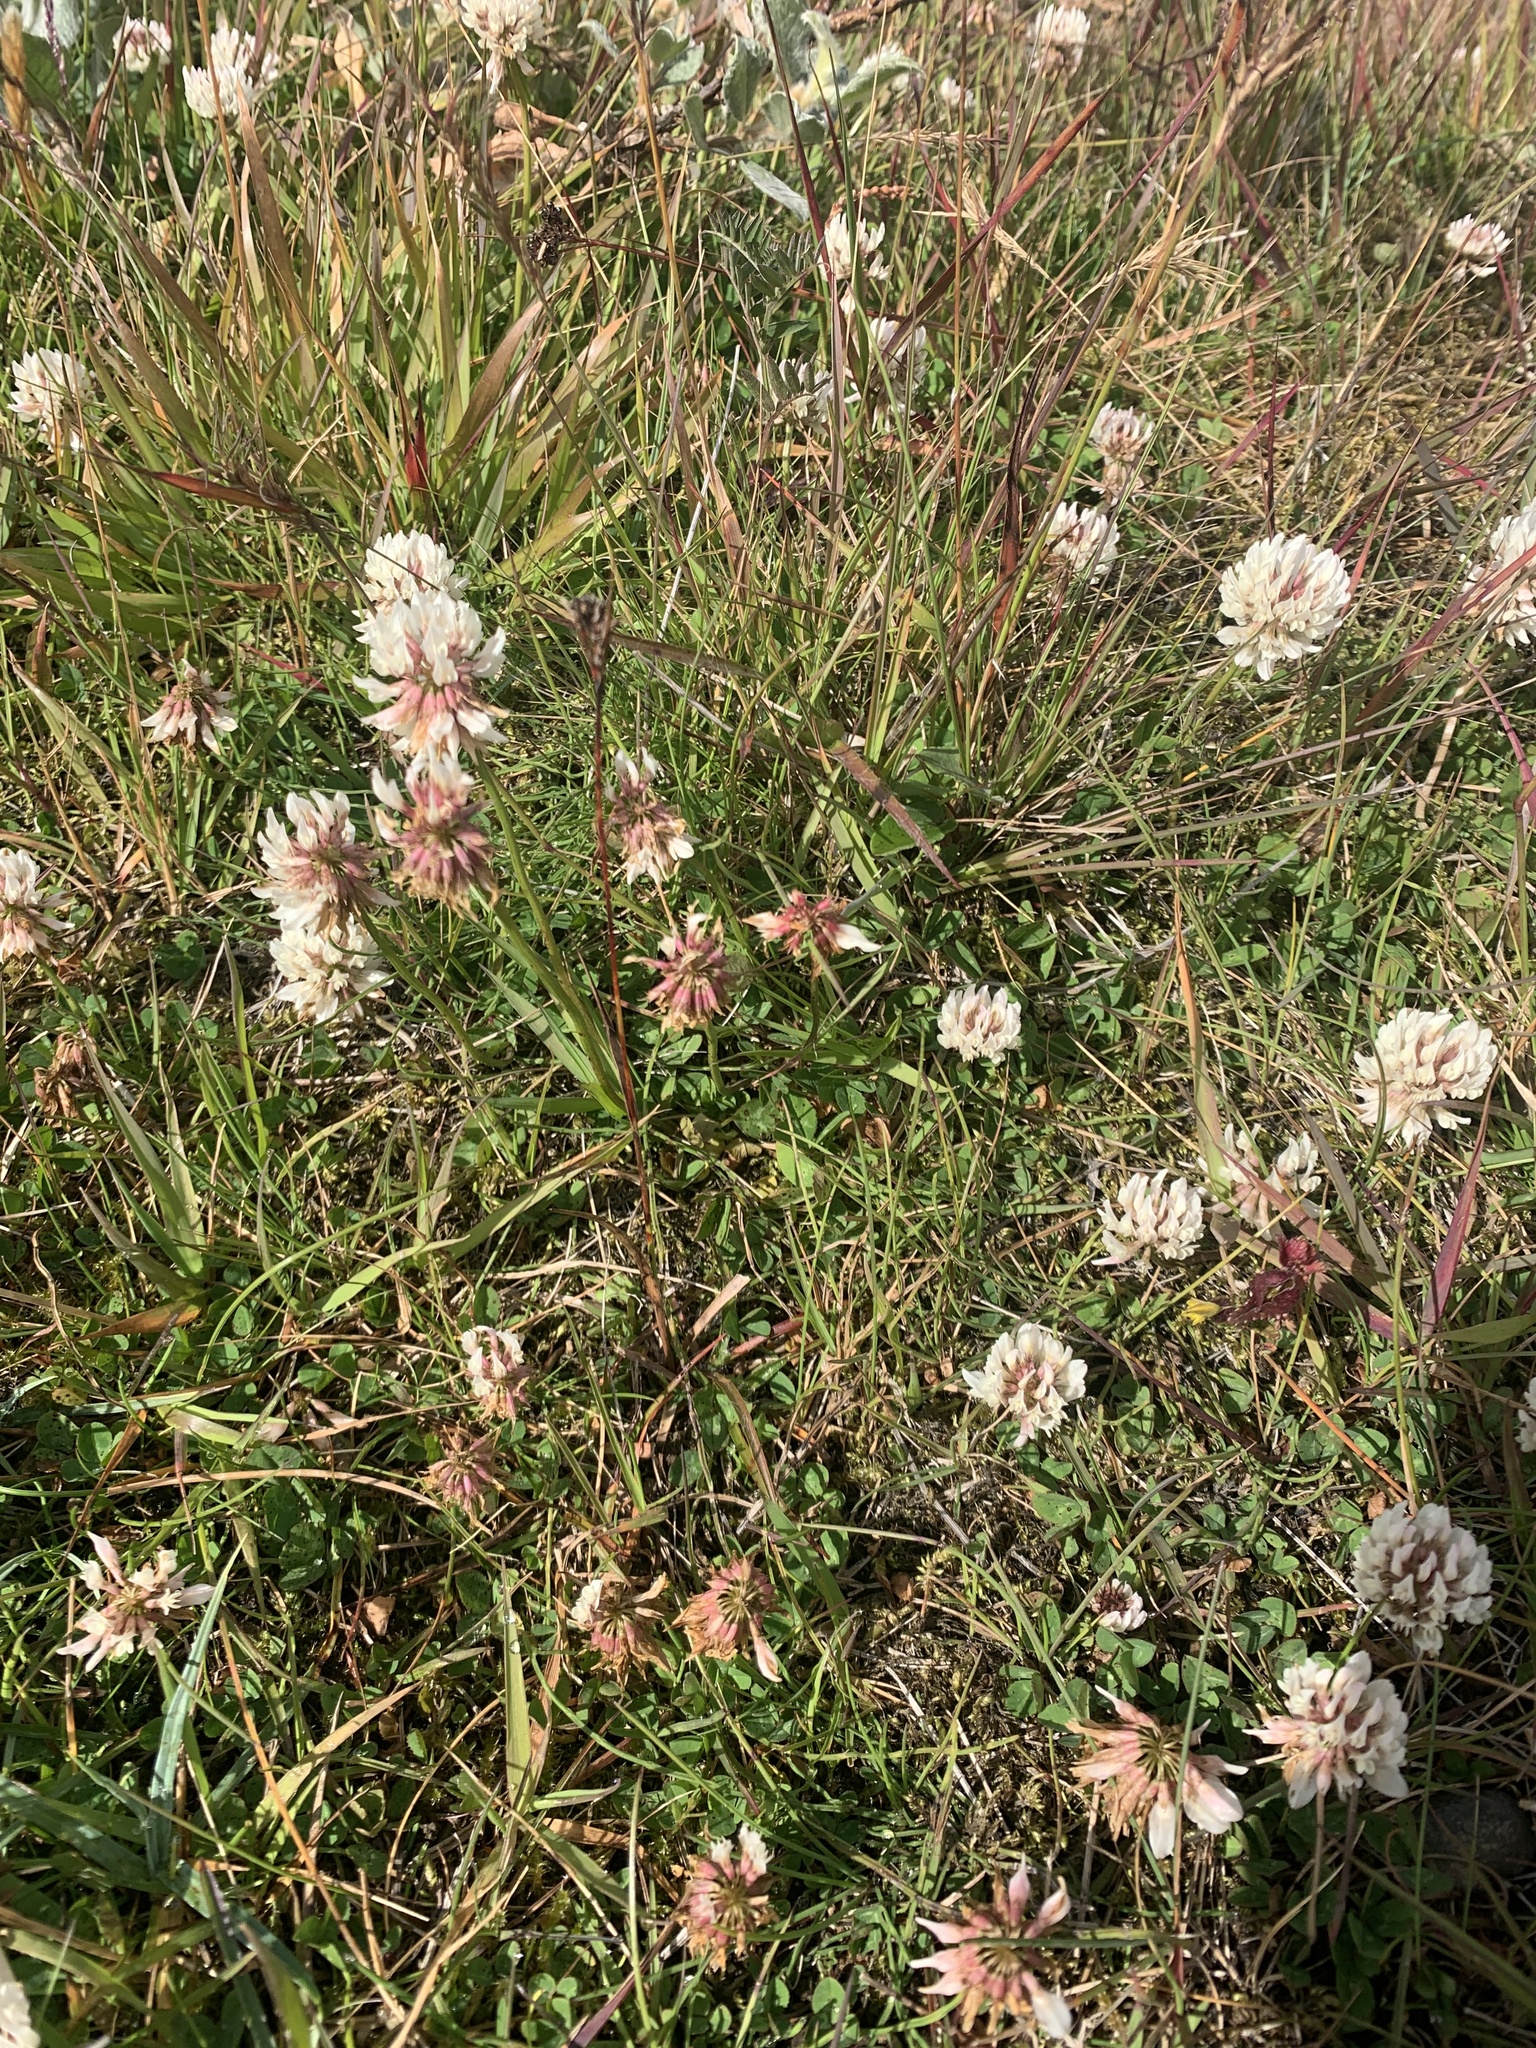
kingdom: Plantae
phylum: Tracheophyta
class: Magnoliopsida
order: Fabales
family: Fabaceae
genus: Trifolium
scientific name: Trifolium repens
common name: White clover
